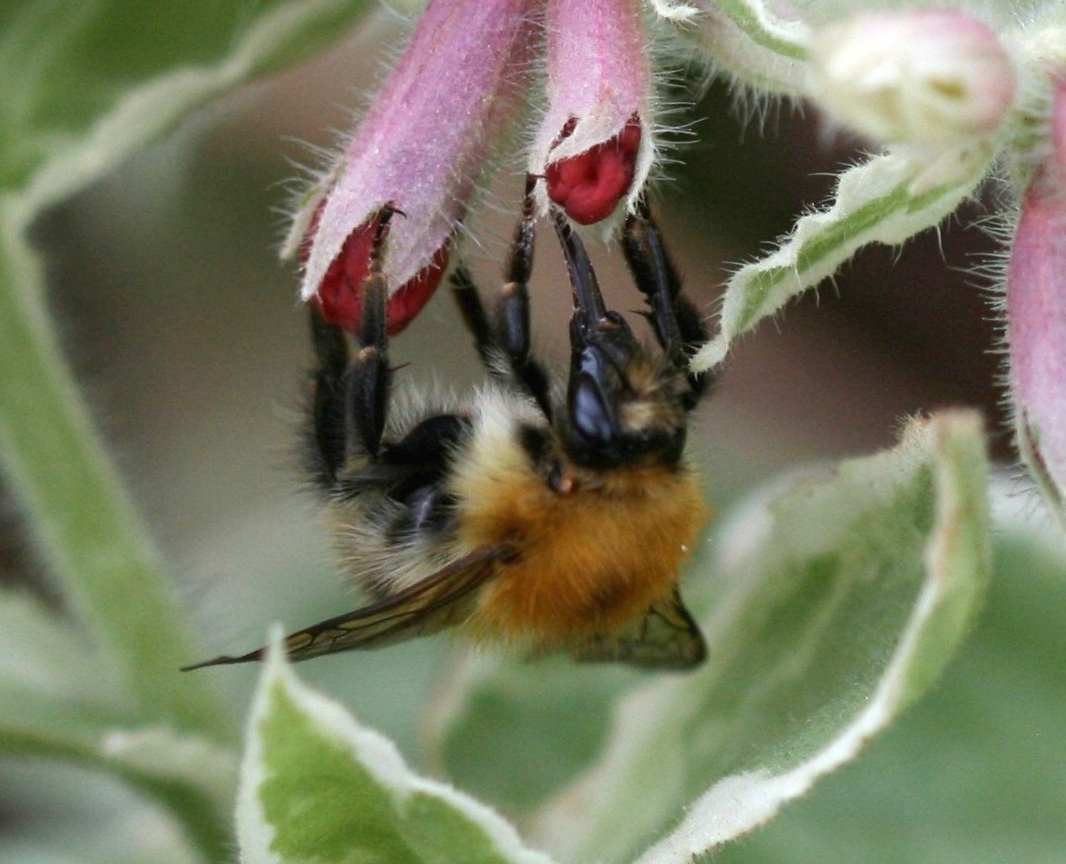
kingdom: Animalia
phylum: Arthropoda
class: Insecta
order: Hymenoptera
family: Apidae
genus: Bombus
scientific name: Bombus pascuorum
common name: Common carder bee
